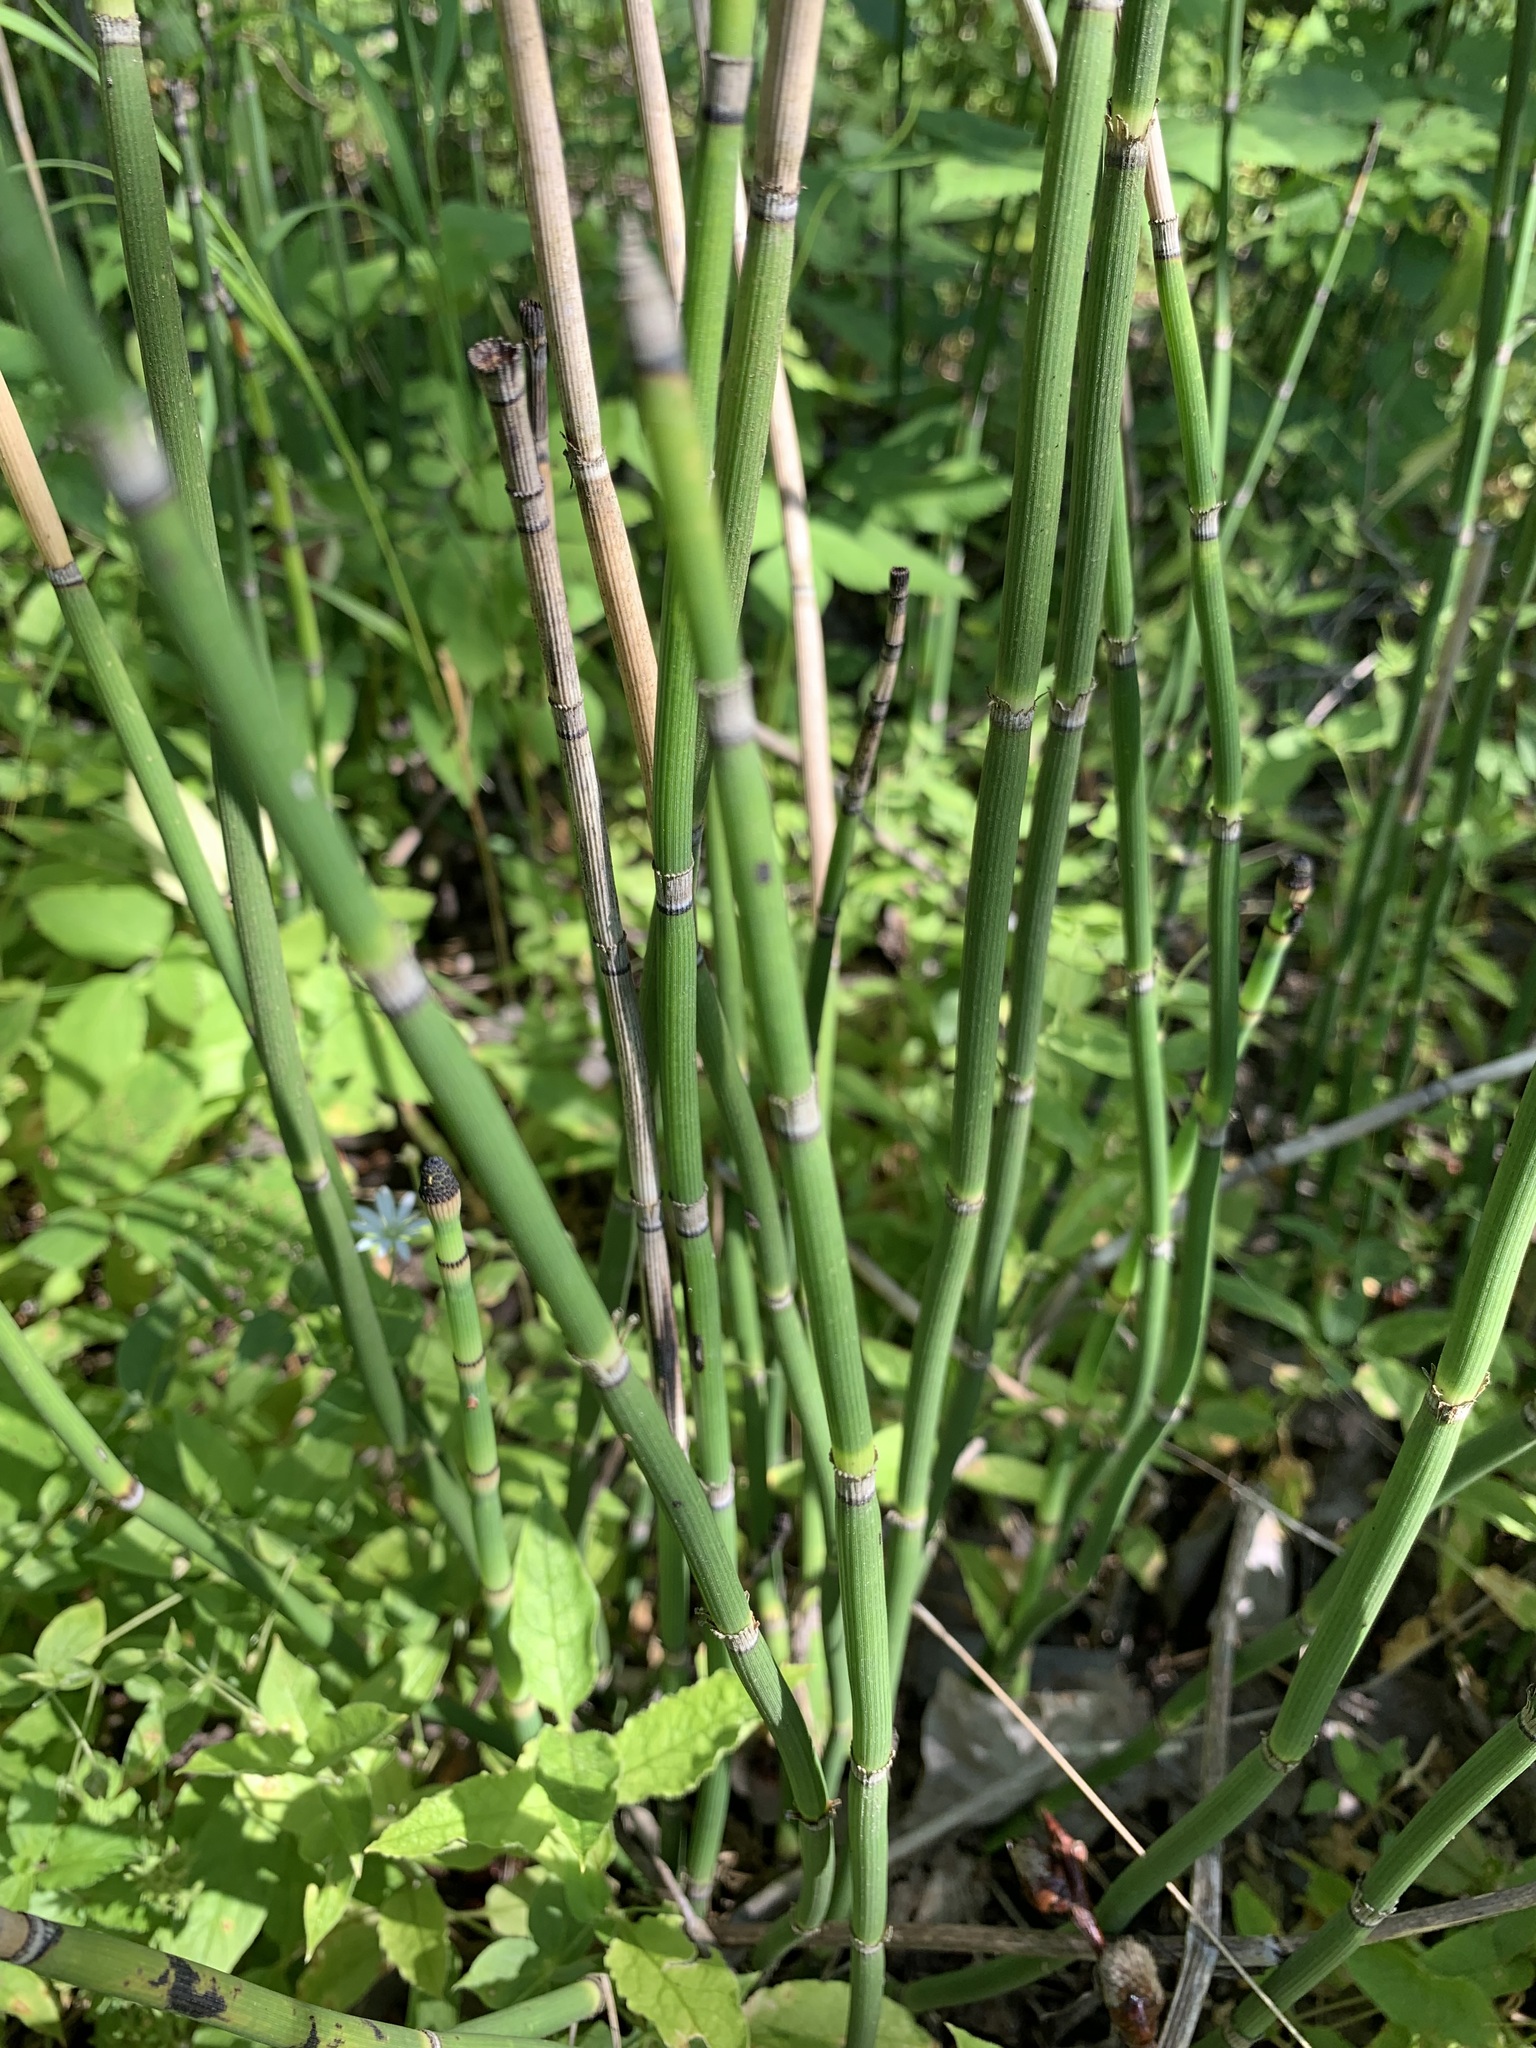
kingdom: Plantae
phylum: Tracheophyta
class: Polypodiopsida
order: Equisetales
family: Equisetaceae
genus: Equisetum
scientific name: Equisetum hyemale
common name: Rough horsetail
